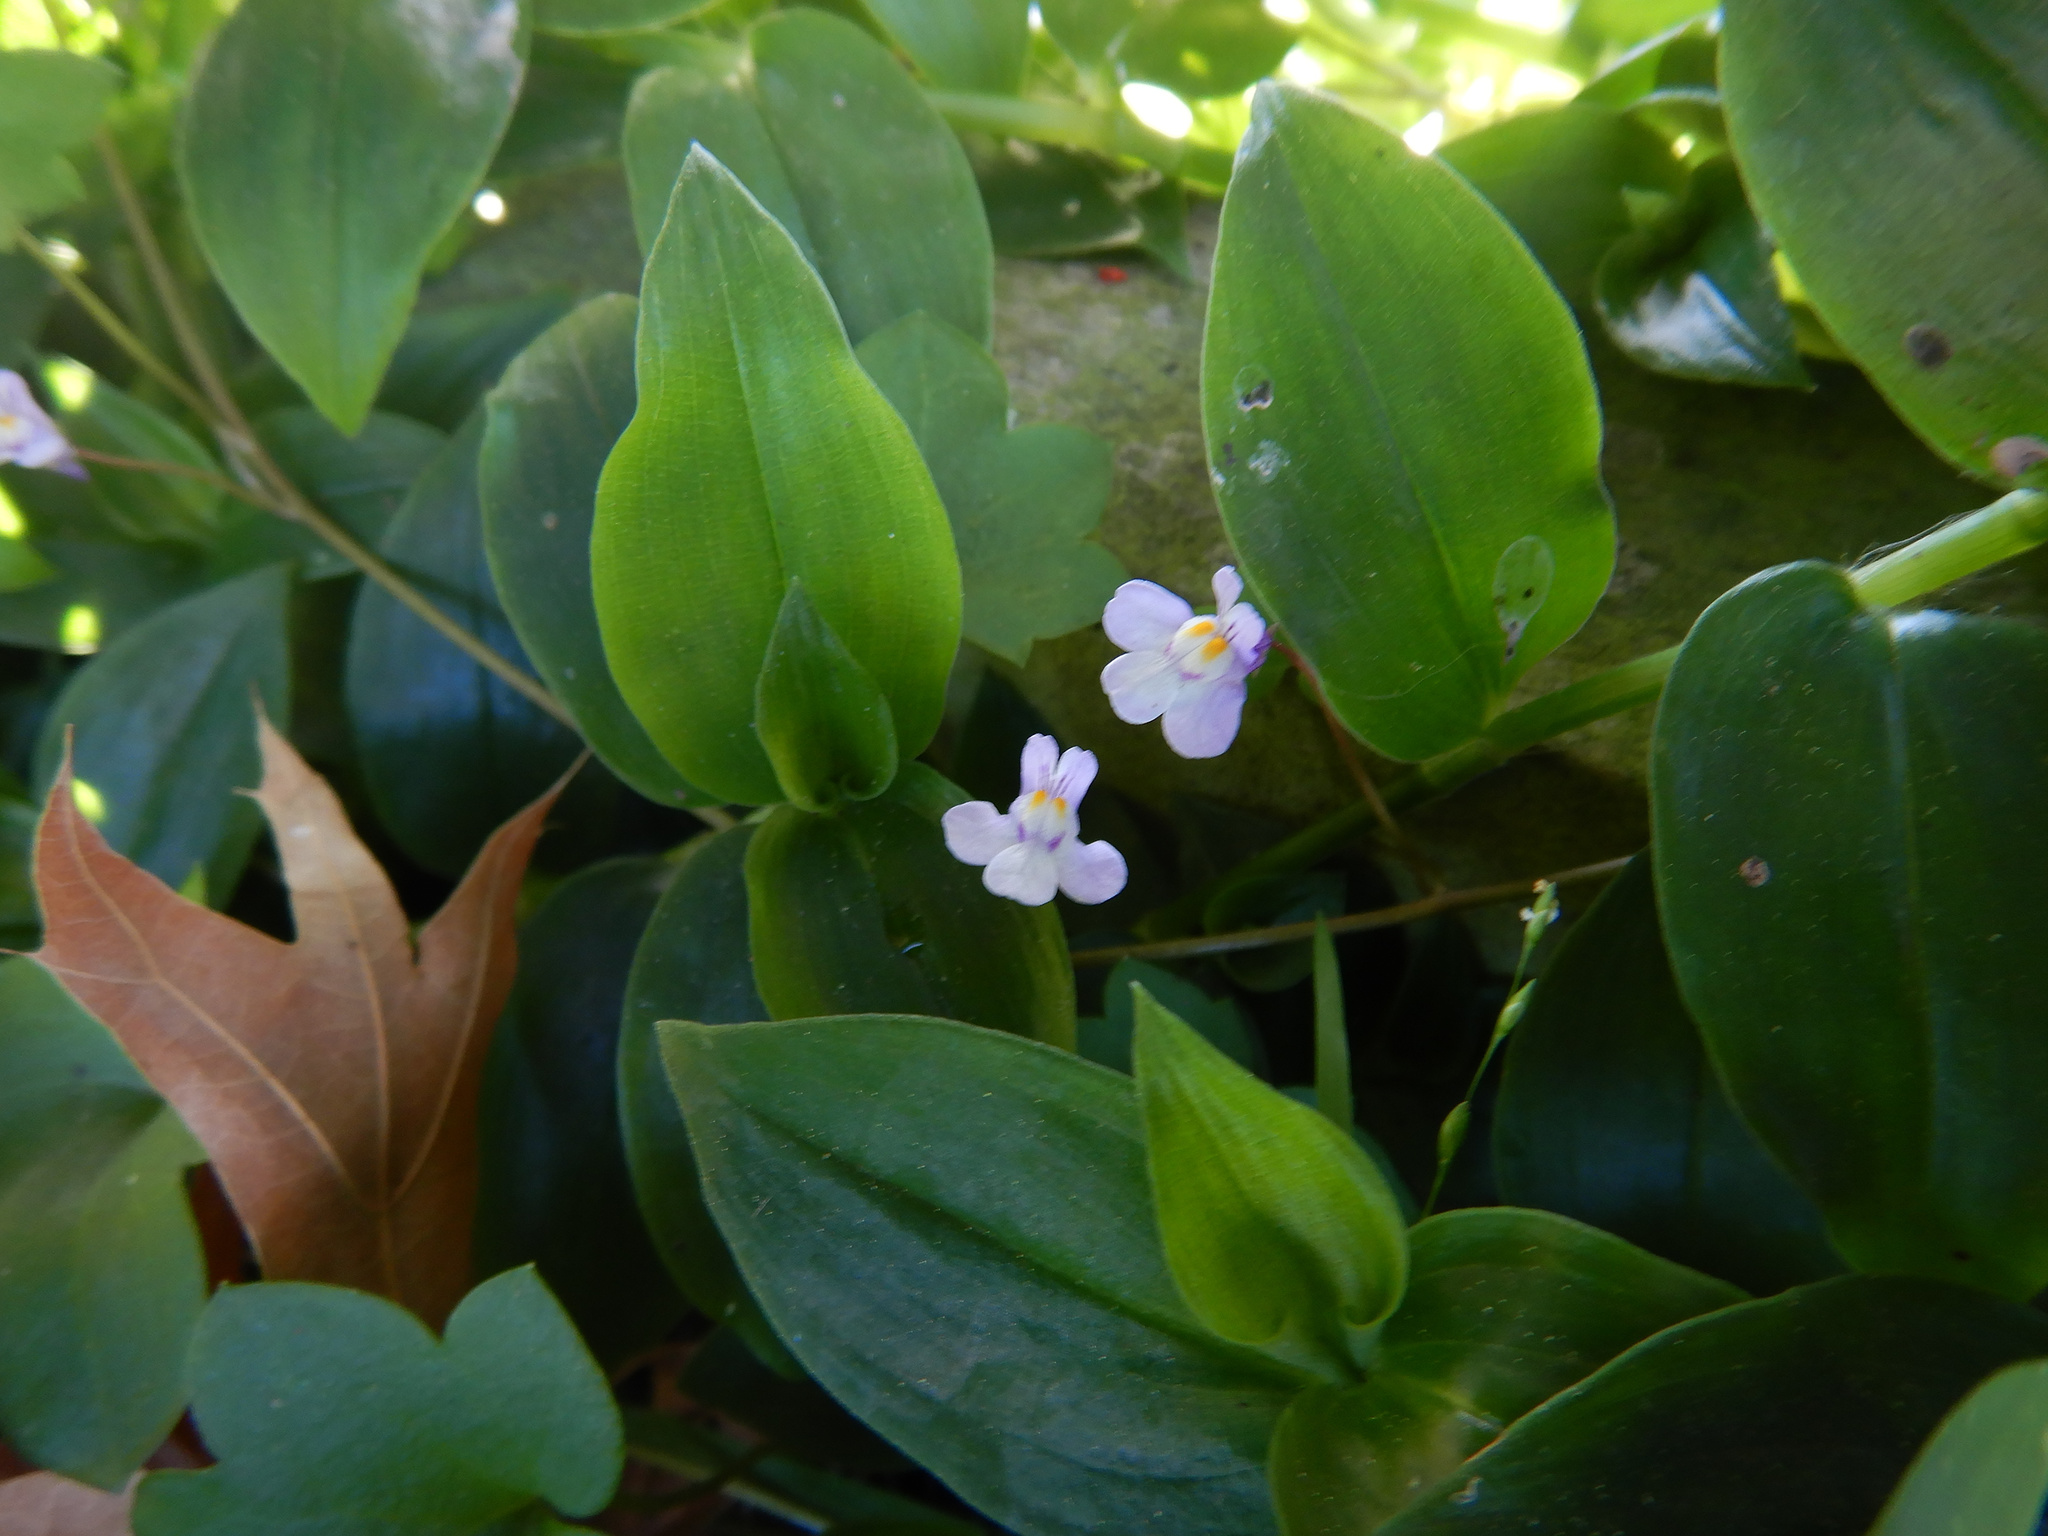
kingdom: Plantae
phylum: Tracheophyta
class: Magnoliopsida
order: Lamiales
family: Plantaginaceae
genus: Cymbalaria
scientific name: Cymbalaria muralis
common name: Ivy-leaved toadflax
